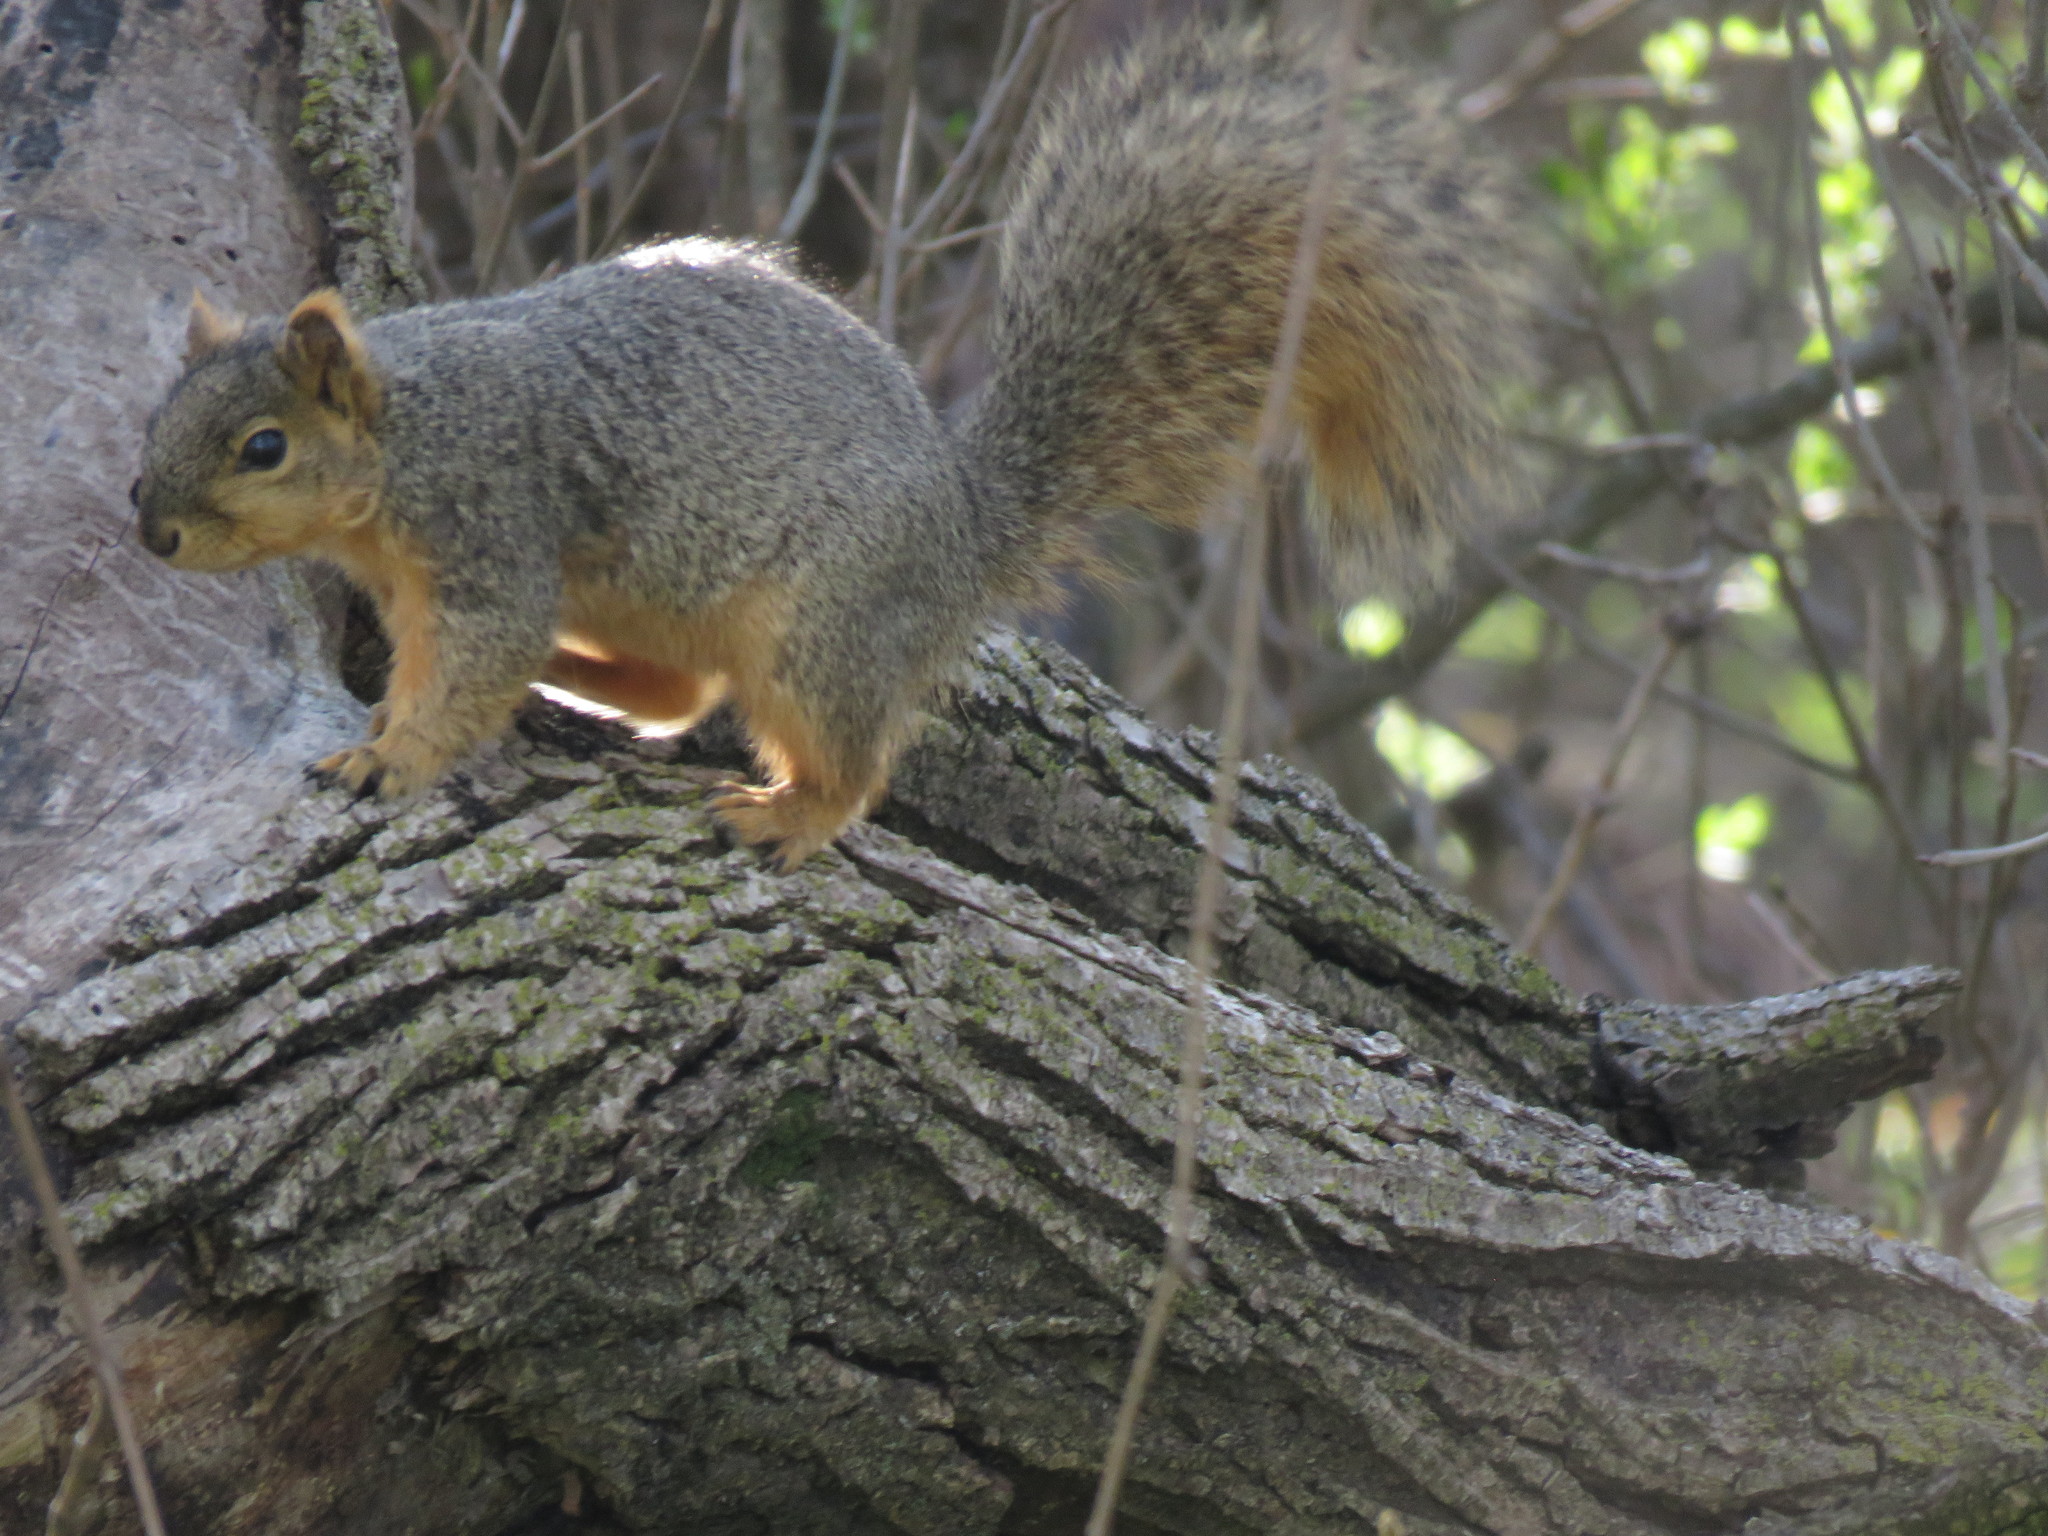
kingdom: Animalia
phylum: Chordata
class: Mammalia
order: Rodentia
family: Sciuridae
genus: Sciurus
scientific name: Sciurus niger
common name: Fox squirrel
